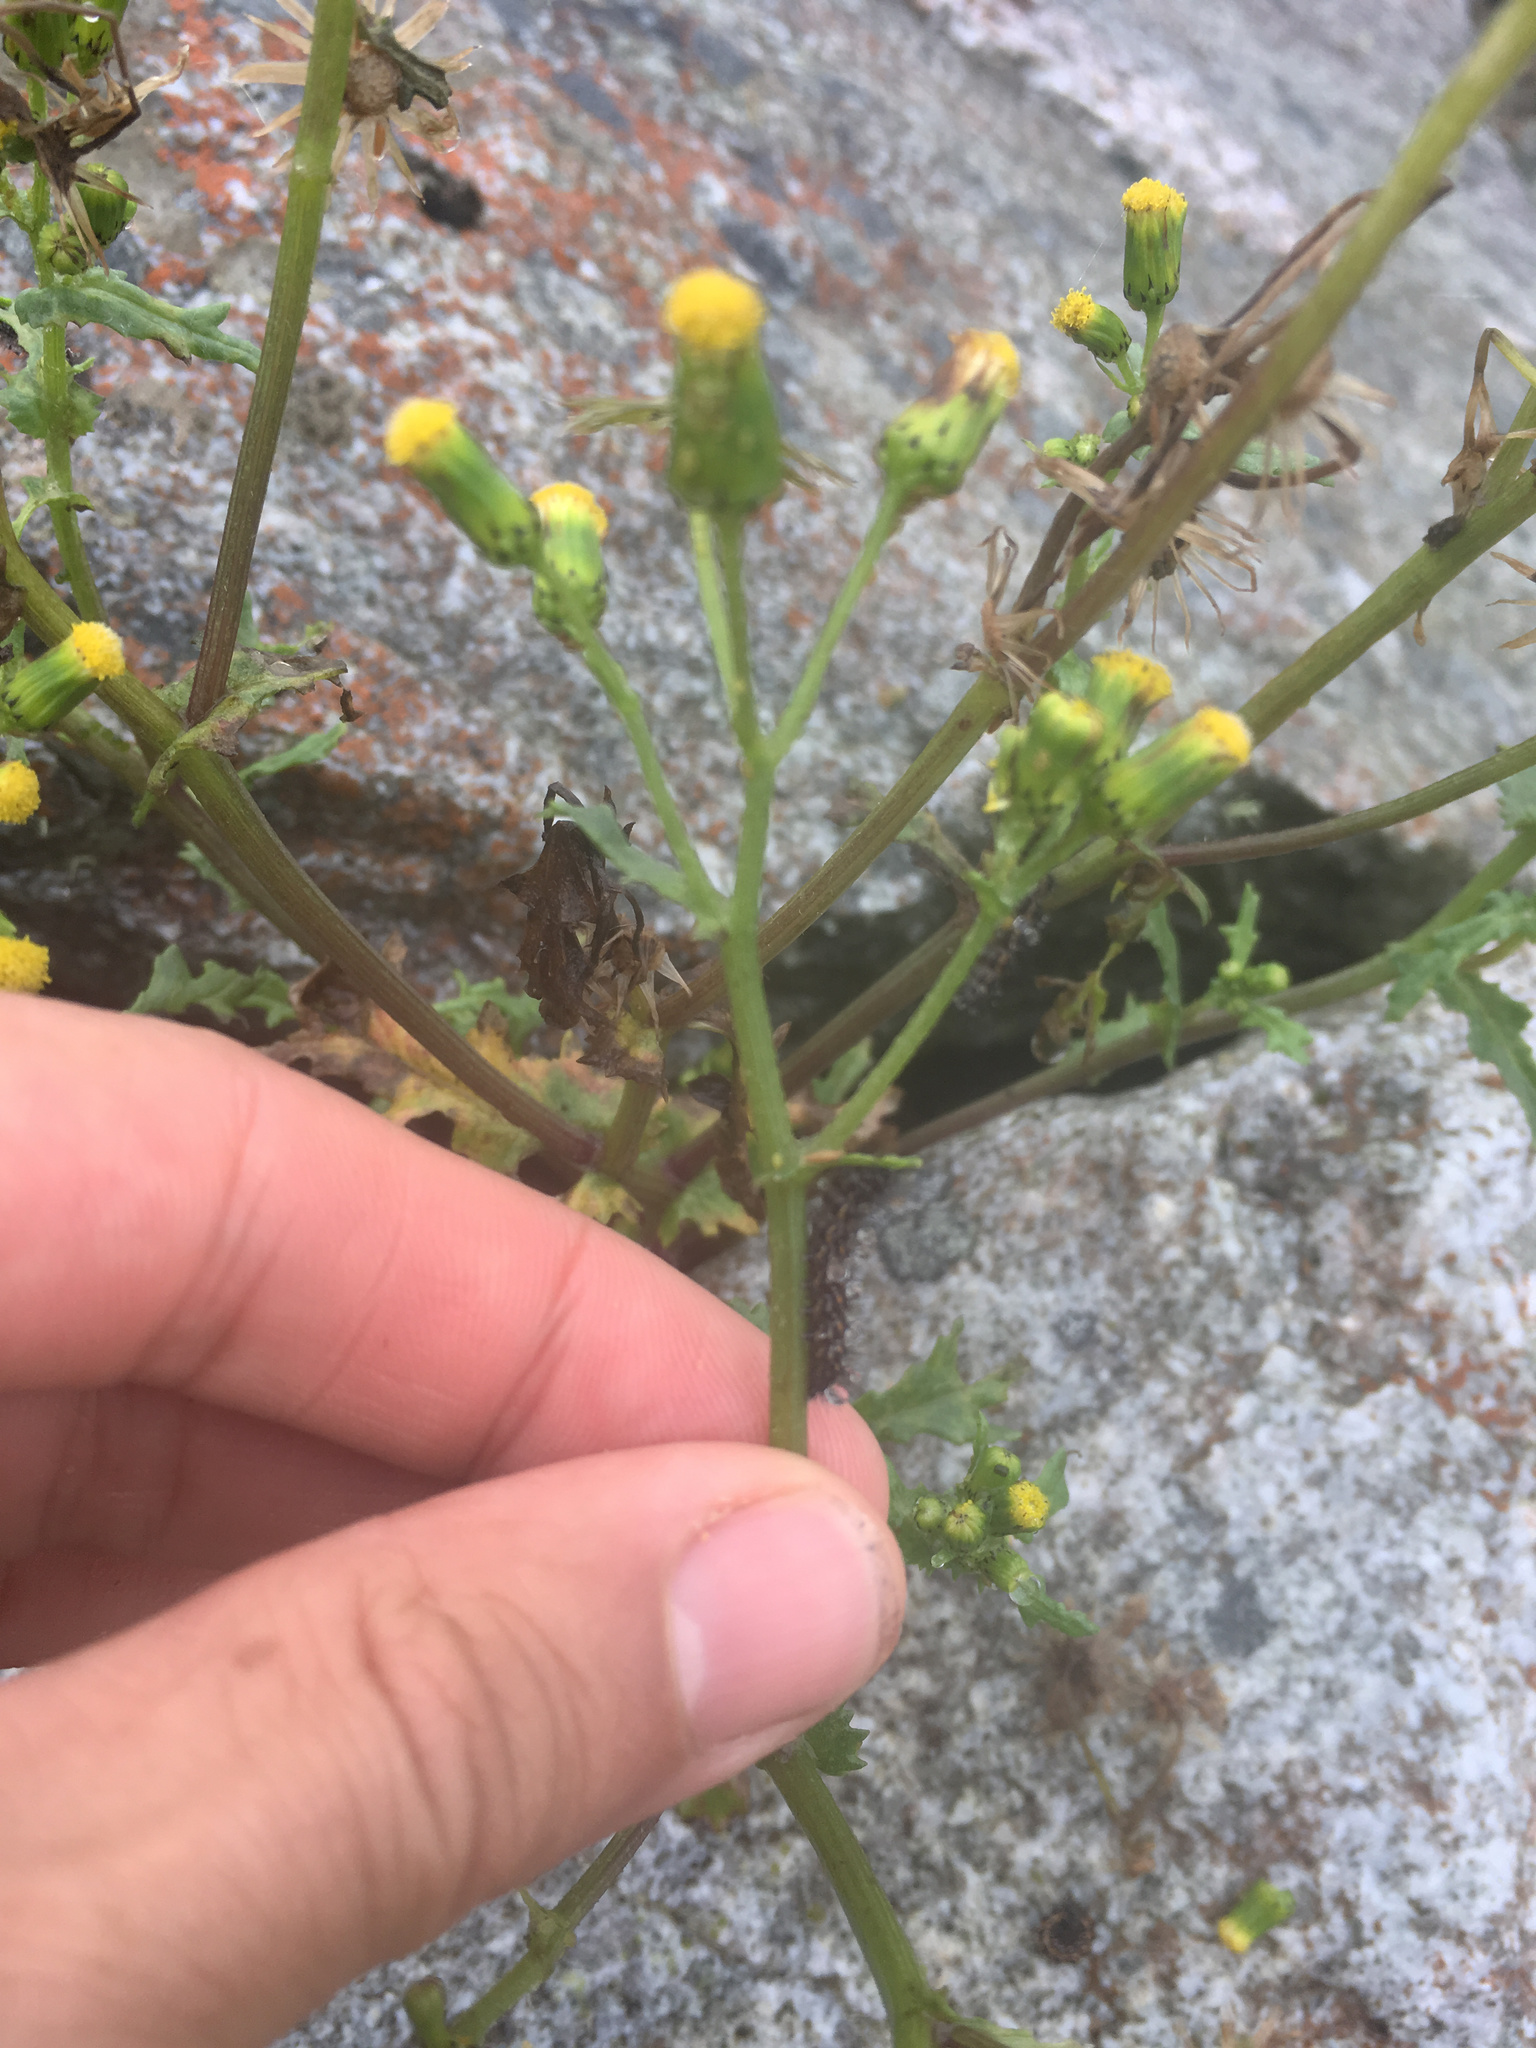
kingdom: Animalia
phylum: Arthropoda
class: Insecta
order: Lepidoptera
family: Erebidae
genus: Nyctemera
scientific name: Nyctemera annulatum
